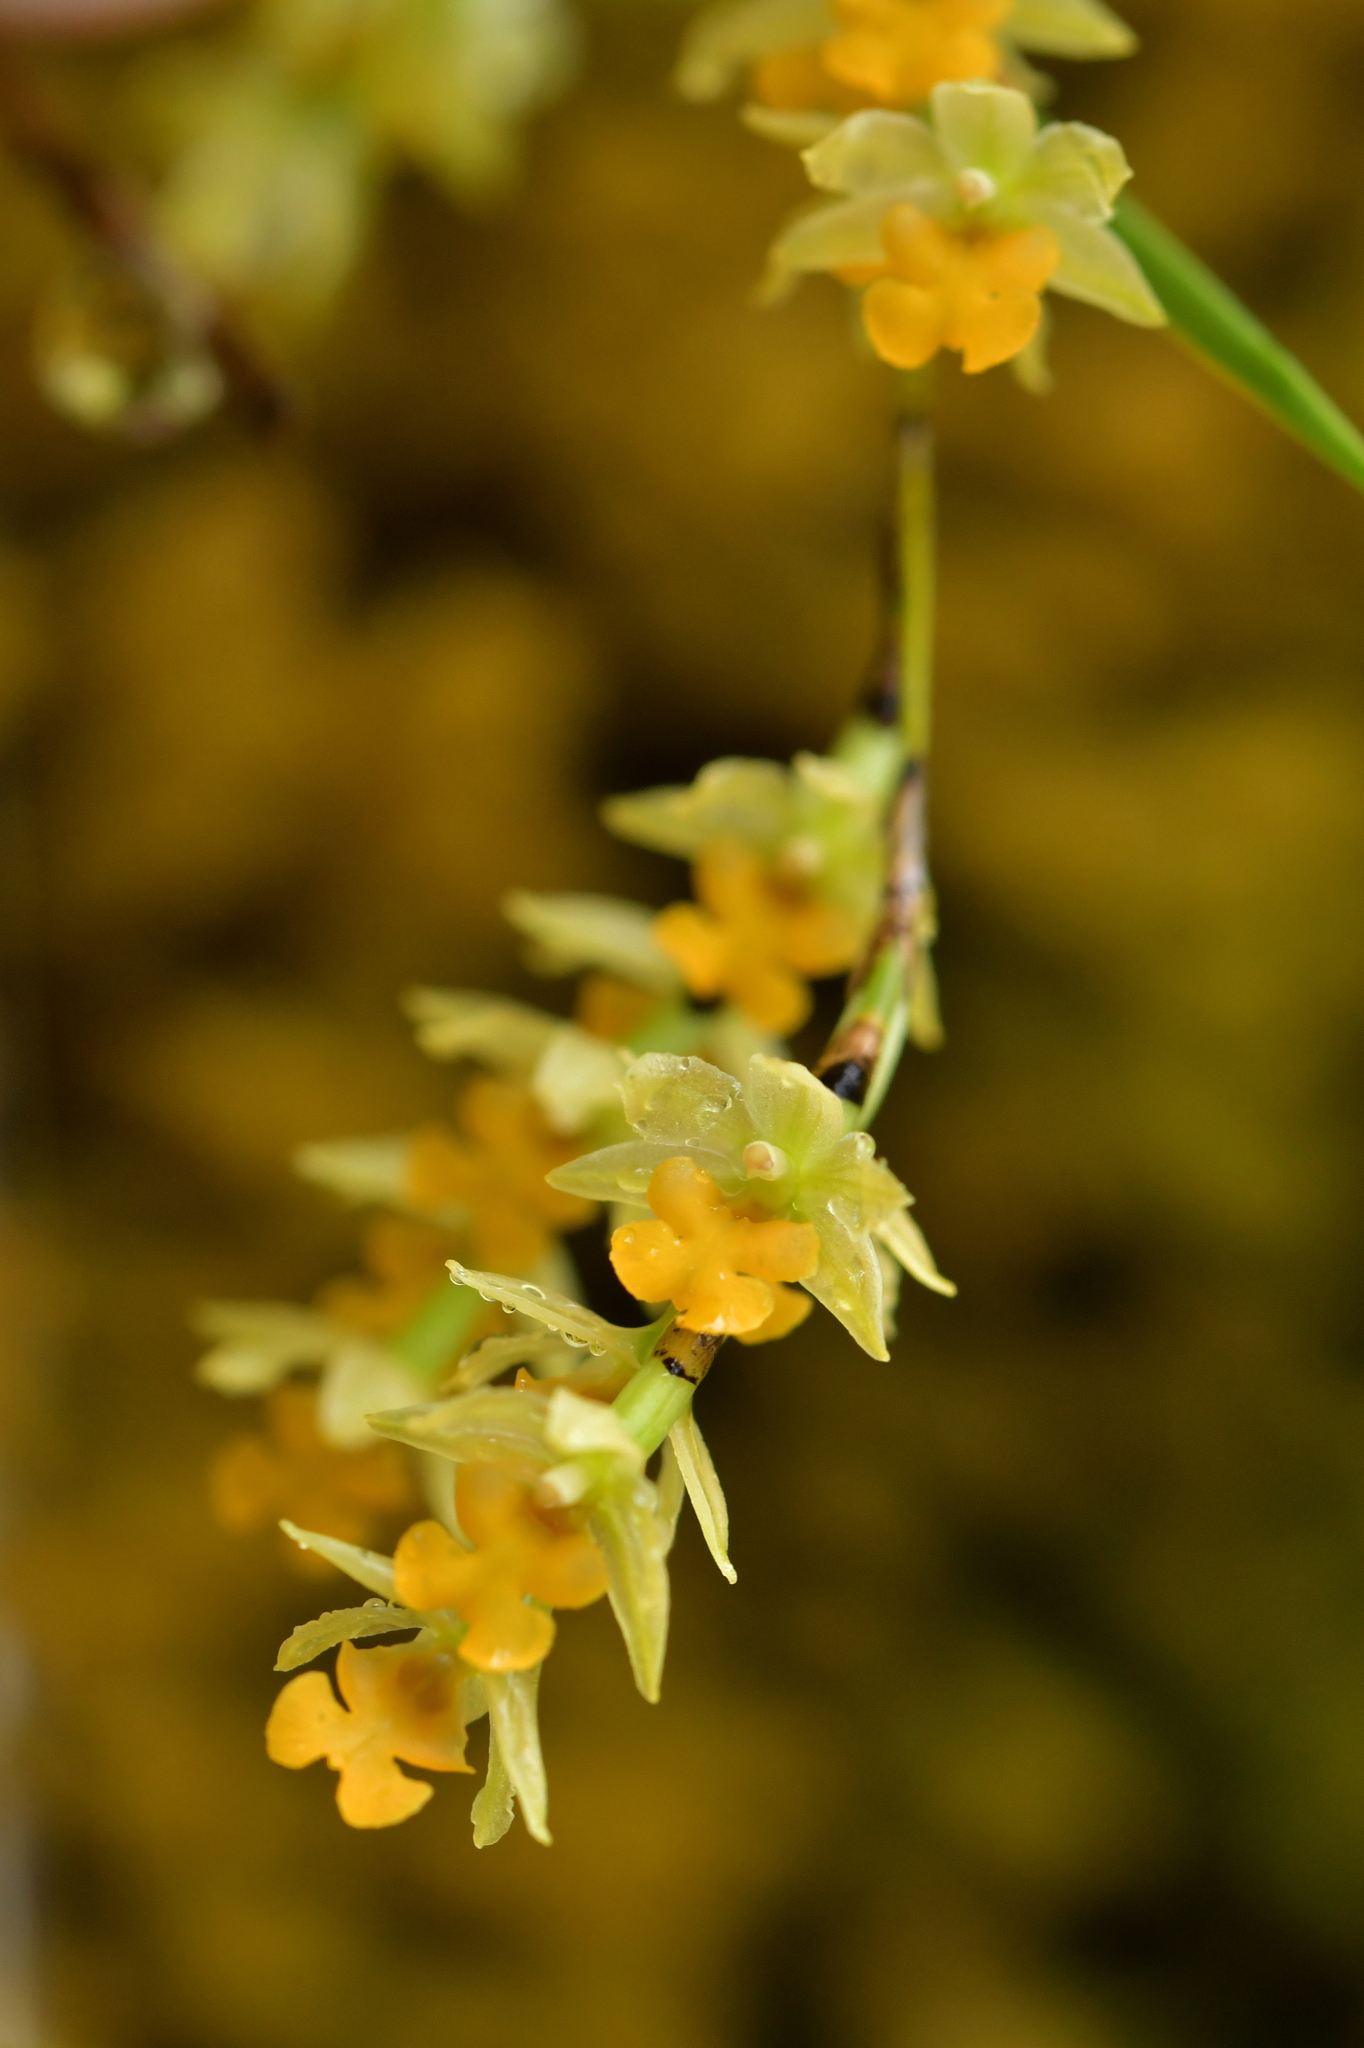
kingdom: Plantae
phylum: Tracheophyta
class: Liliopsida
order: Asparagales
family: Orchidaceae
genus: Earina
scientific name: Earina mucronata
